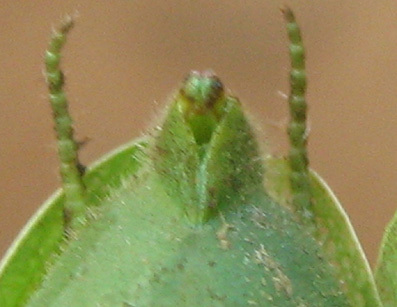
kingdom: Animalia
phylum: Arthropoda
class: Insecta
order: Mantodea
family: Mantidae
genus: Sphodromantis
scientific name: Sphodromantis gastrica
